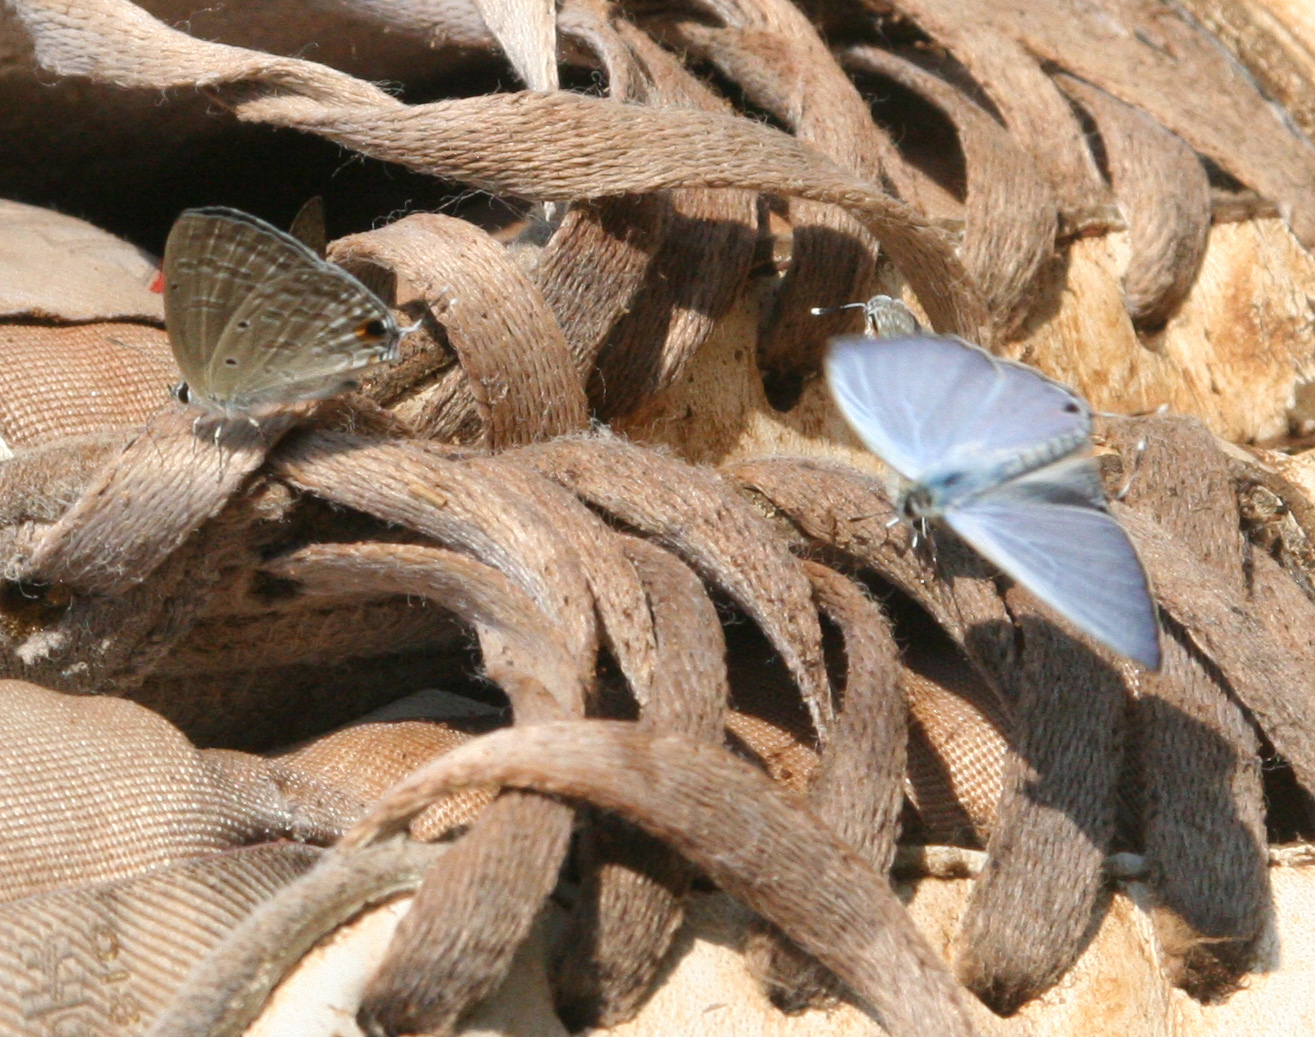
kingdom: Animalia
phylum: Arthropoda
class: Insecta
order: Lepidoptera
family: Lycaenidae
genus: Catochrysops
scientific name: Catochrysops strabo
